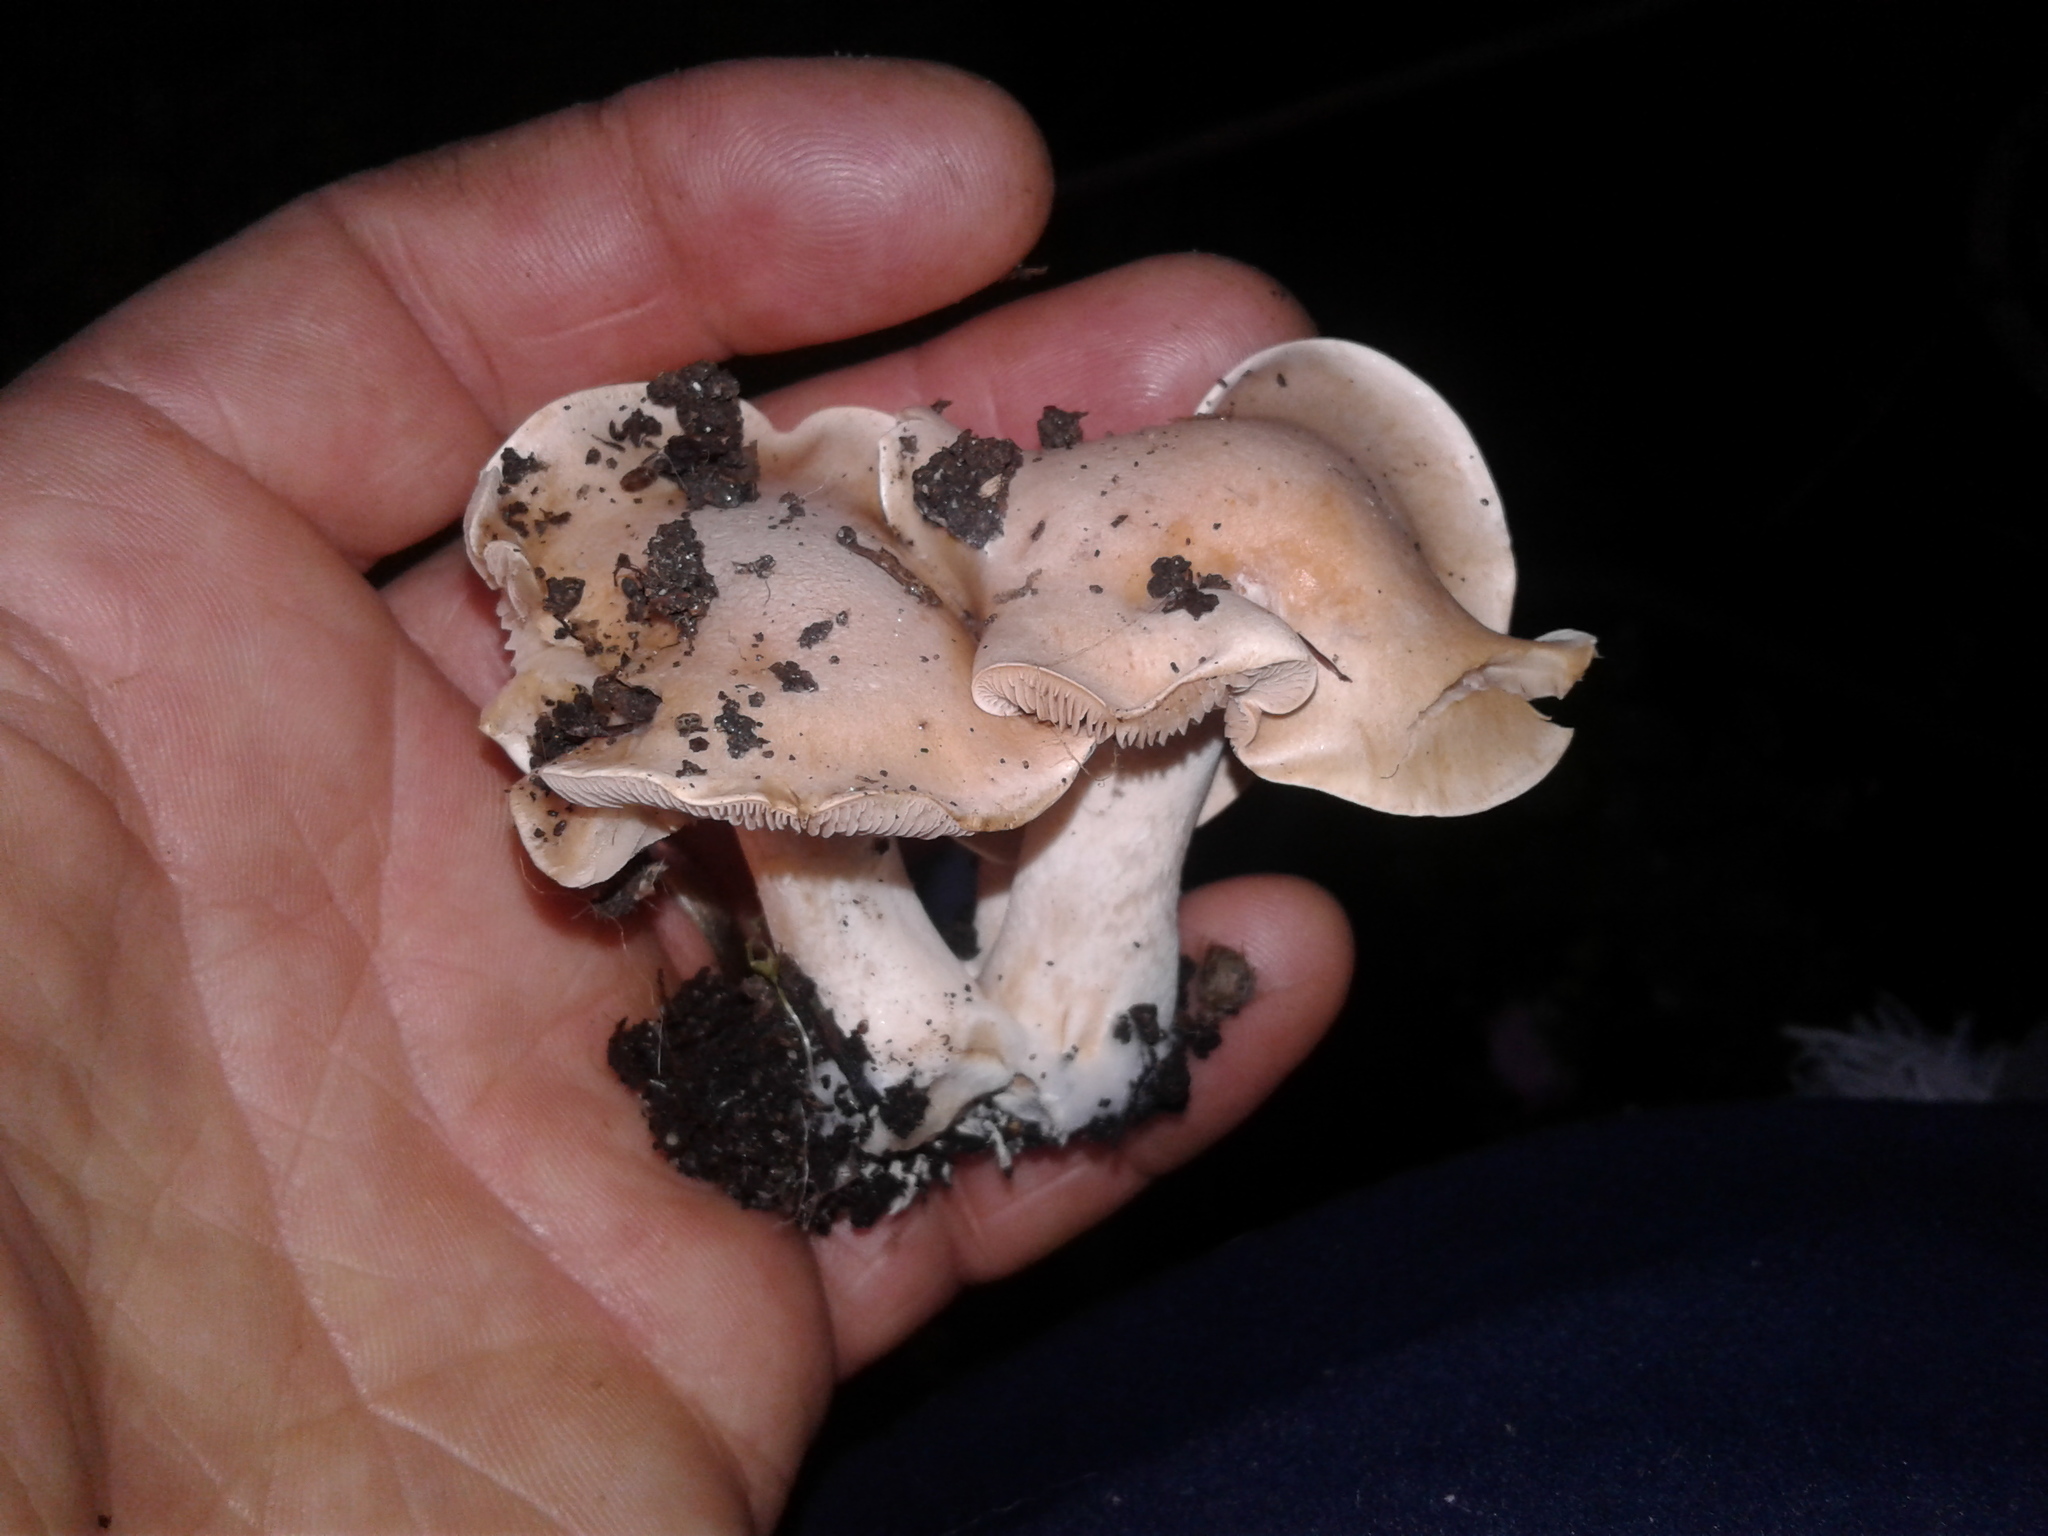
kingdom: Fungi
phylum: Basidiomycota
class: Agaricomycetes
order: Agaricales
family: Hymenogastraceae
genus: Hebeloma
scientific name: Hebeloma
